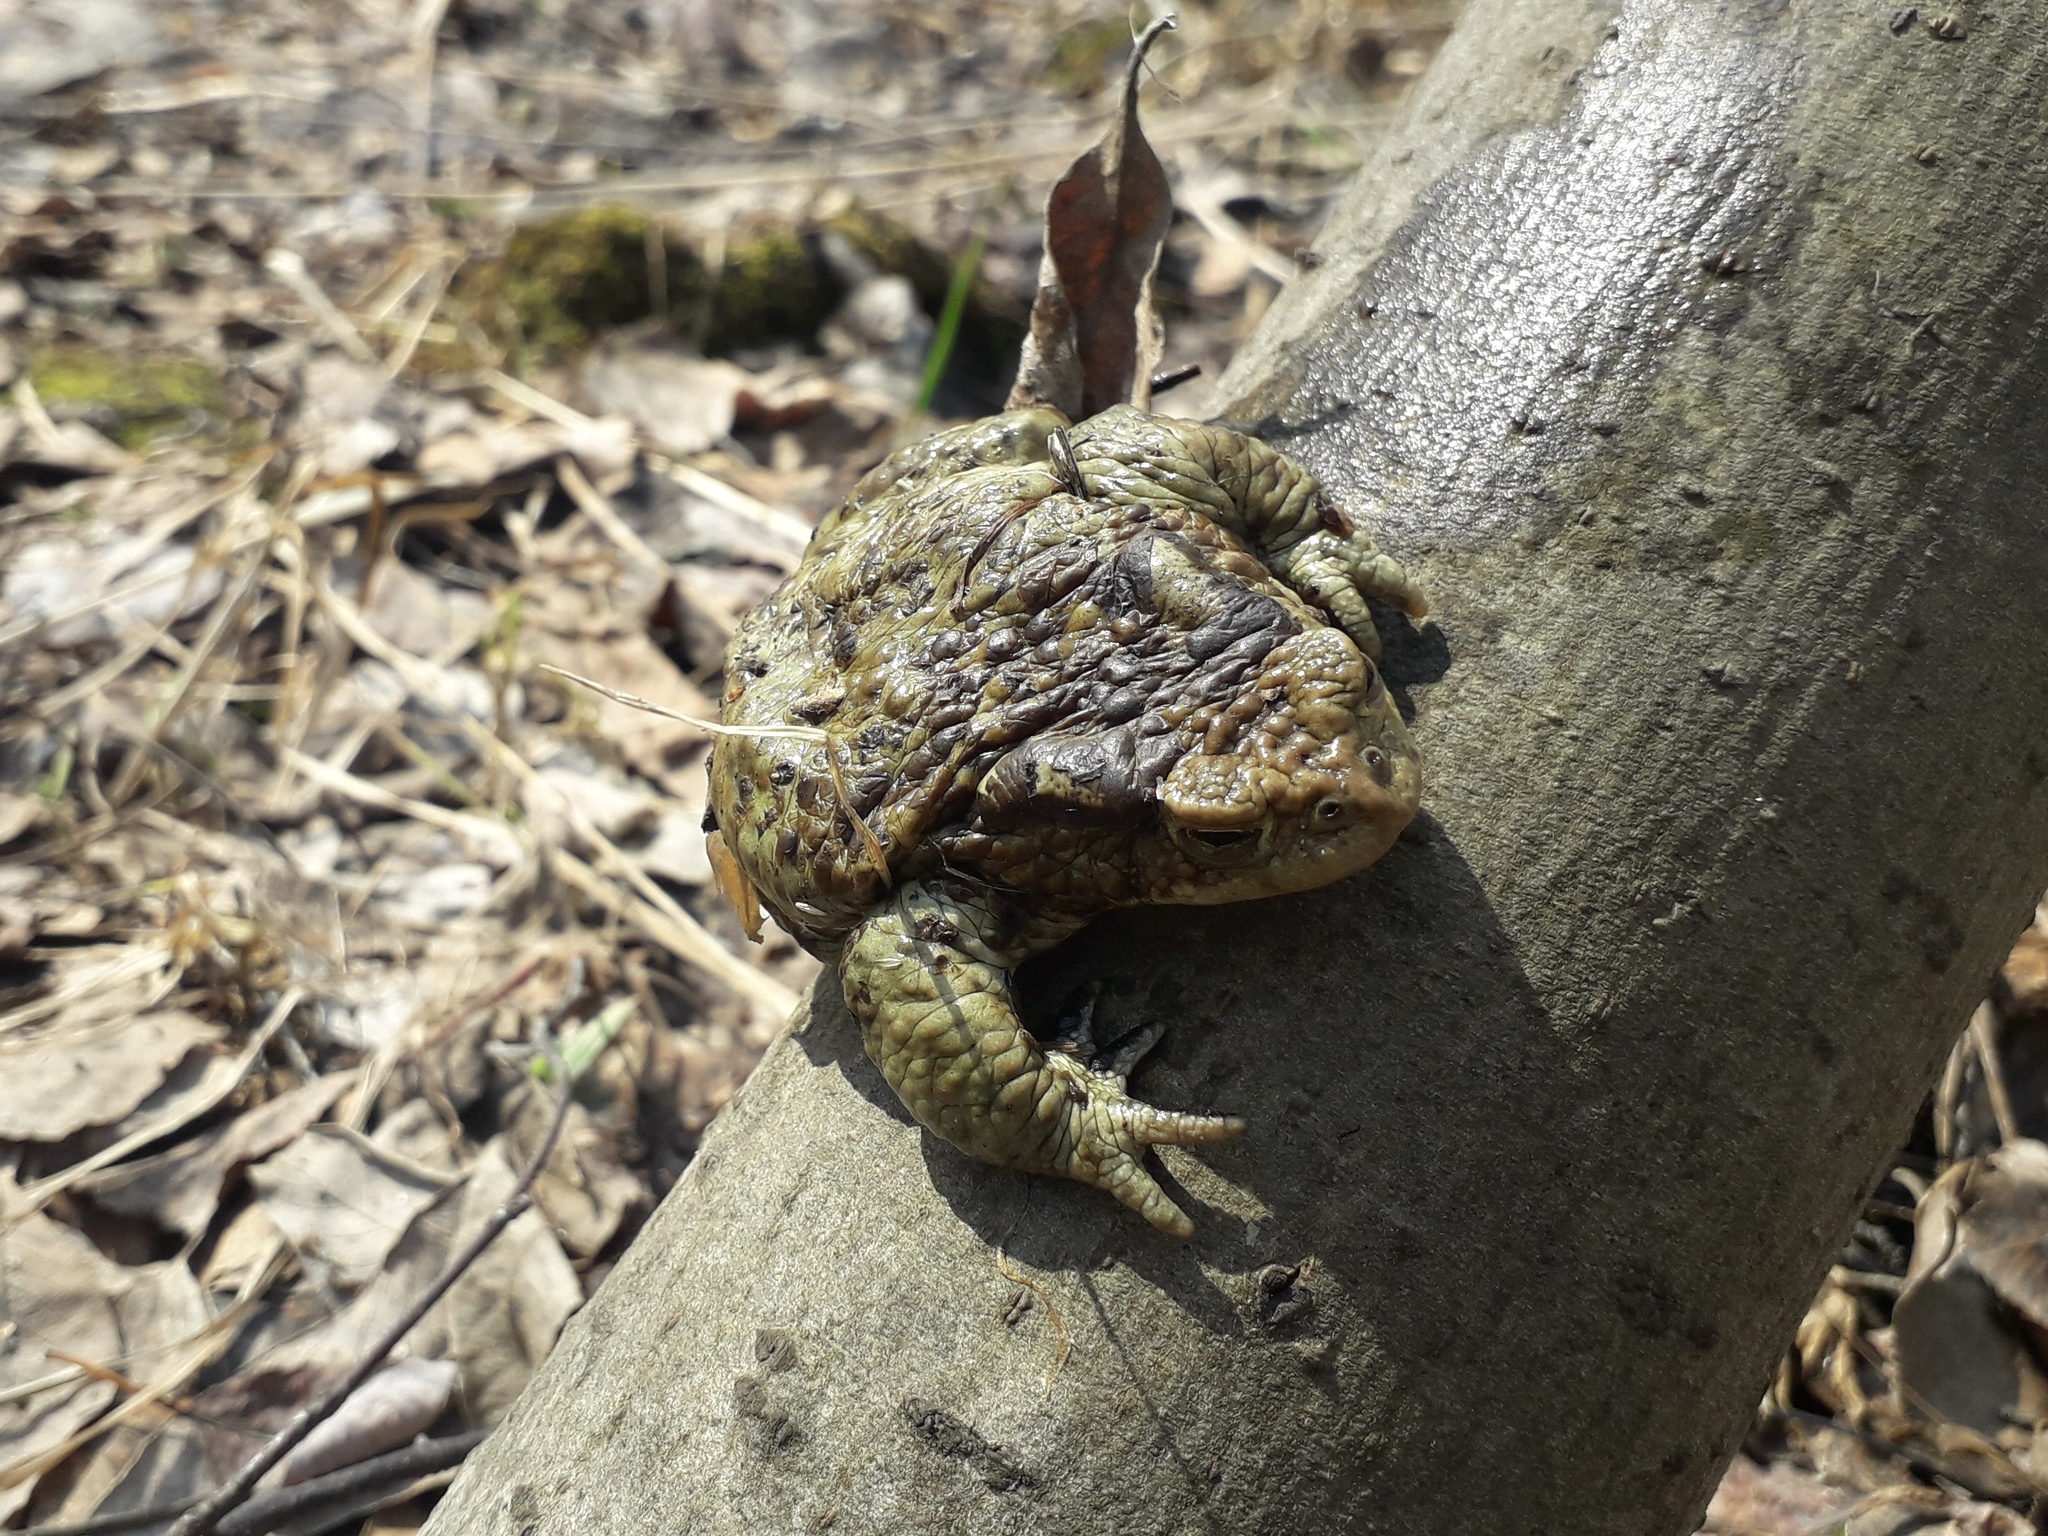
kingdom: Animalia
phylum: Chordata
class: Amphibia
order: Anura
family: Bufonidae
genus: Bufo
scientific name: Bufo bufo
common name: Common toad
